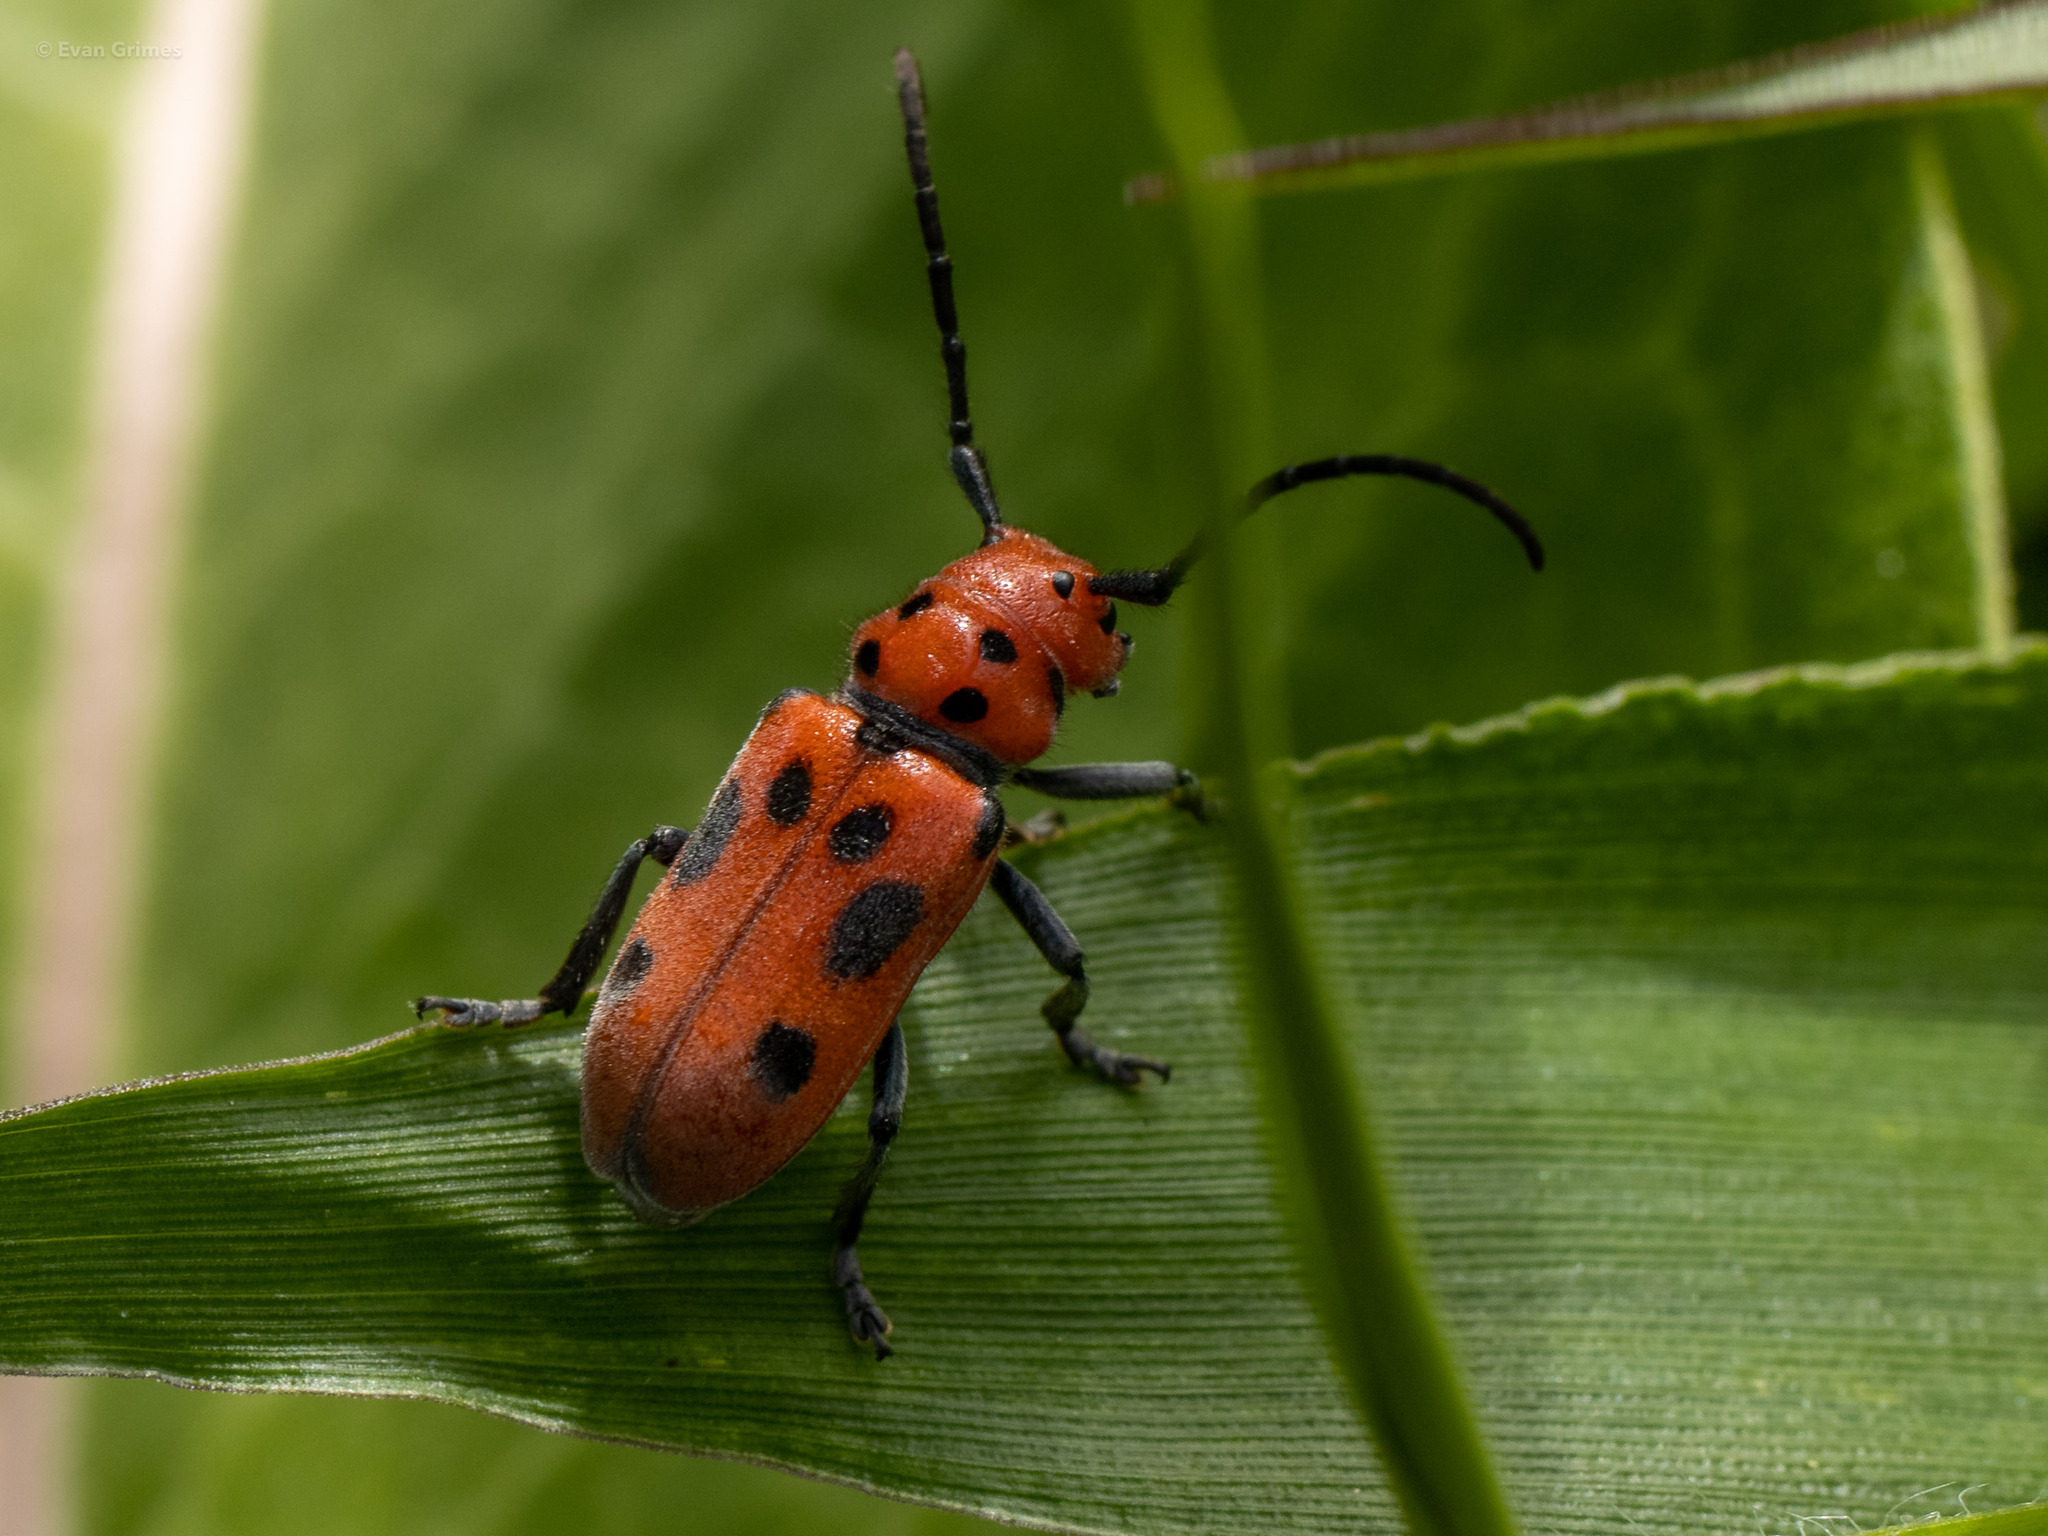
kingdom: Animalia
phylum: Arthropoda
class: Insecta
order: Coleoptera
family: Cerambycidae
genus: Tetraopes
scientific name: Tetraopes tetrophthalmus
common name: Red milkweed beetle
